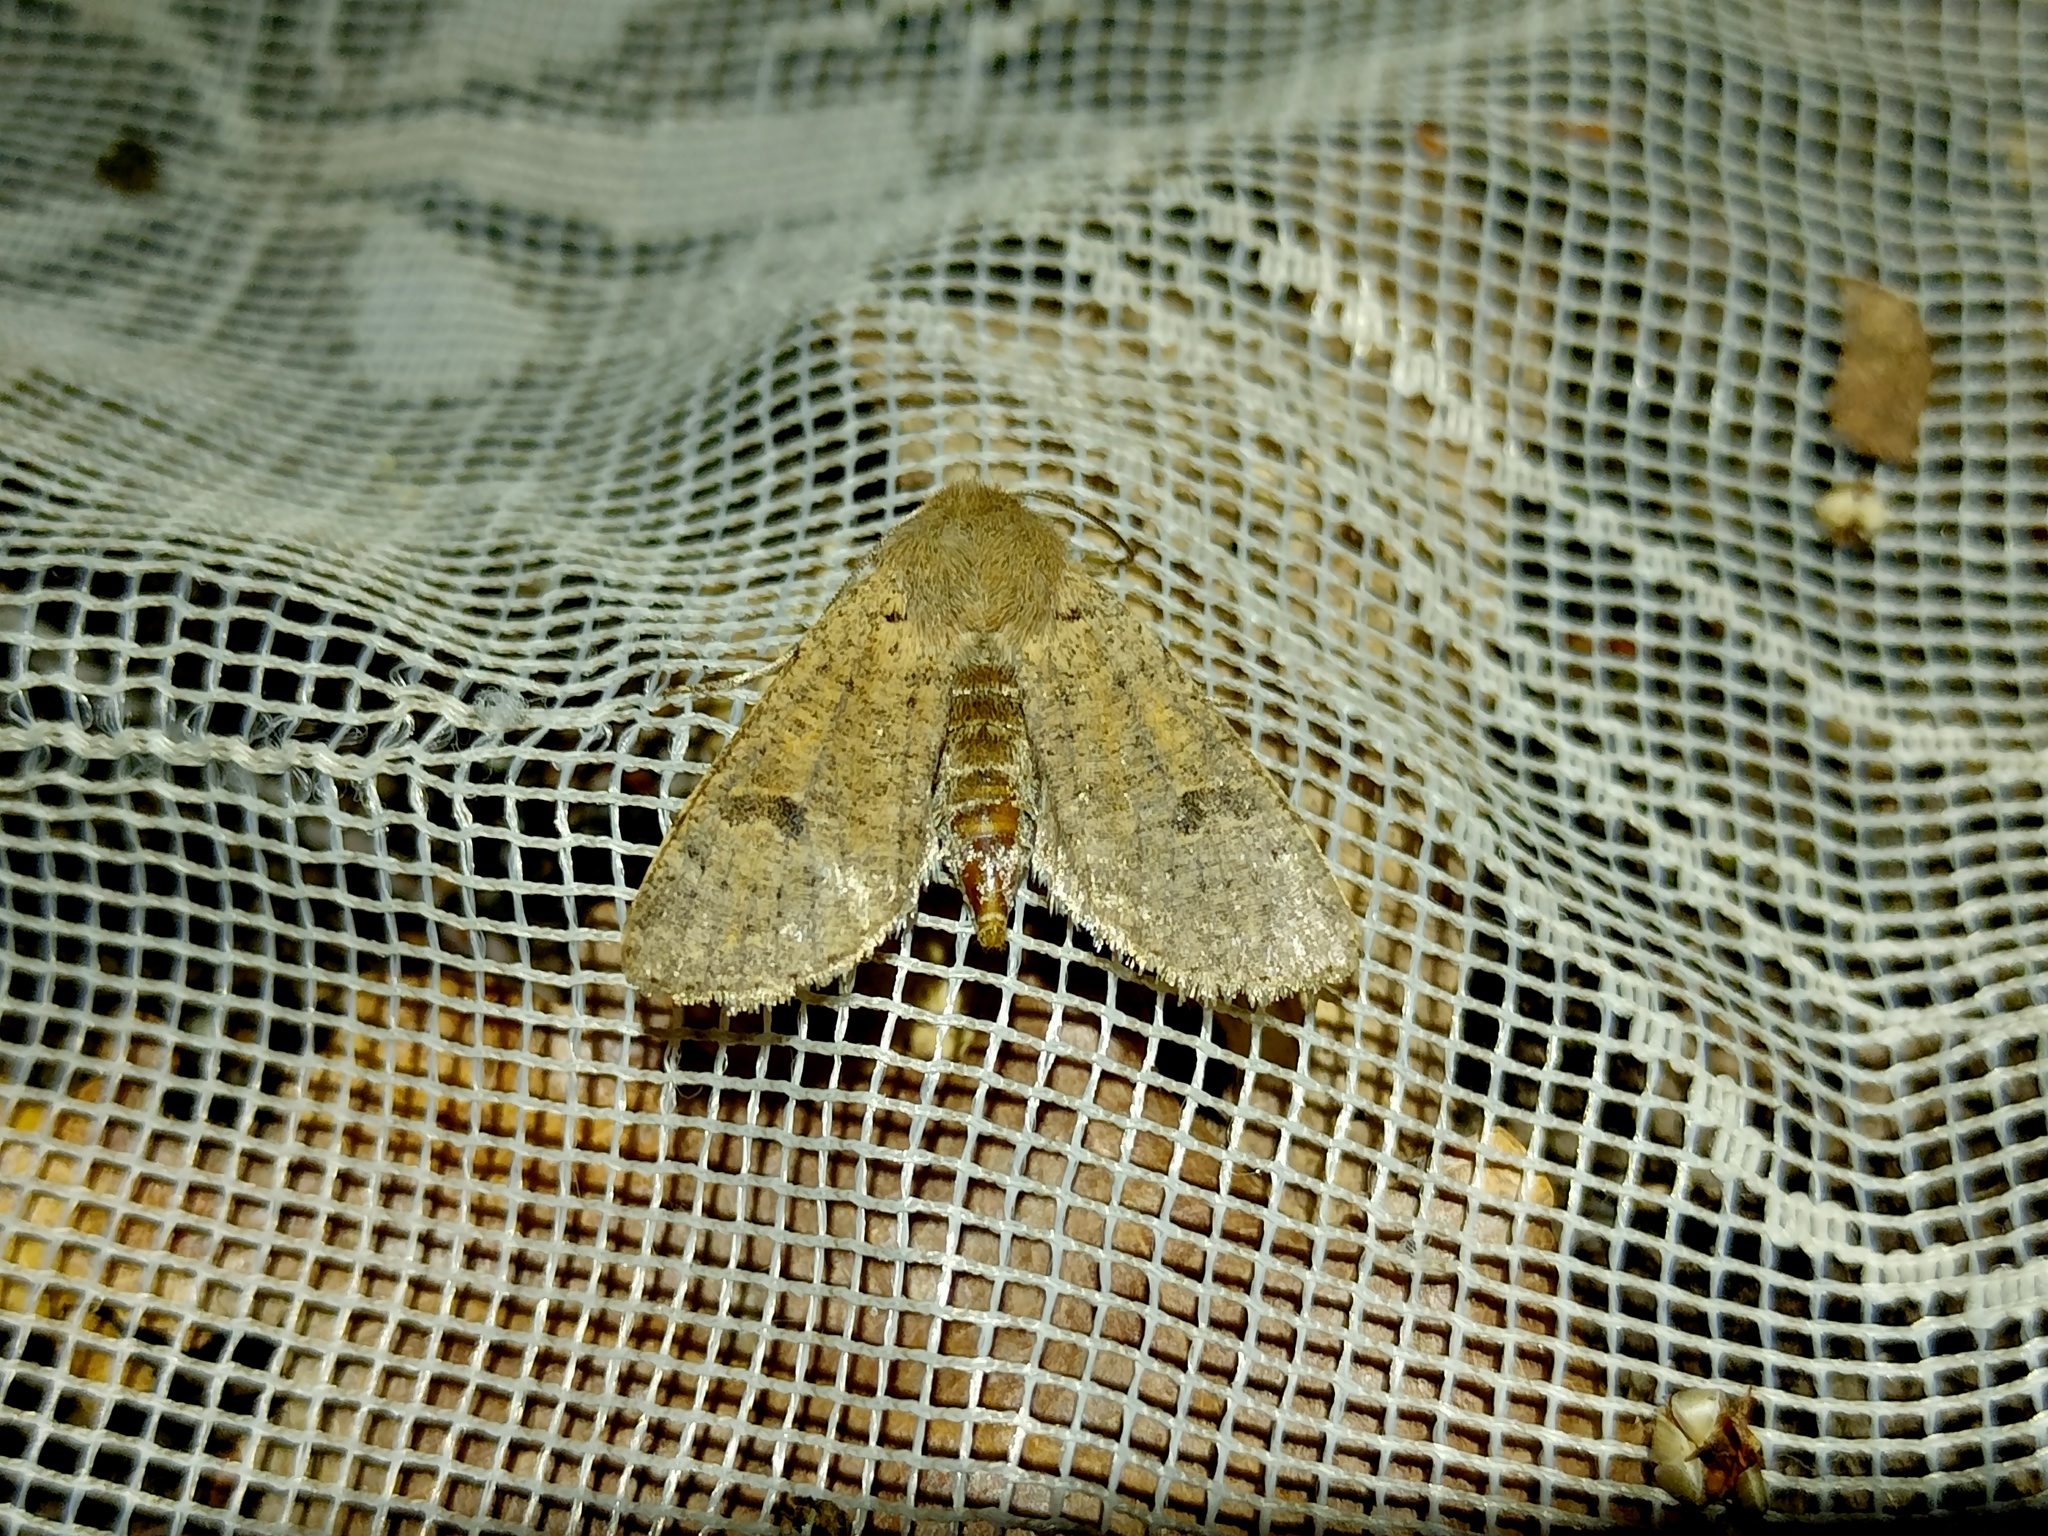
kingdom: Animalia
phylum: Arthropoda
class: Insecta
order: Lepidoptera
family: Noctuidae
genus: Orthosia
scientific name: Orthosia cruda
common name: Small quaker
